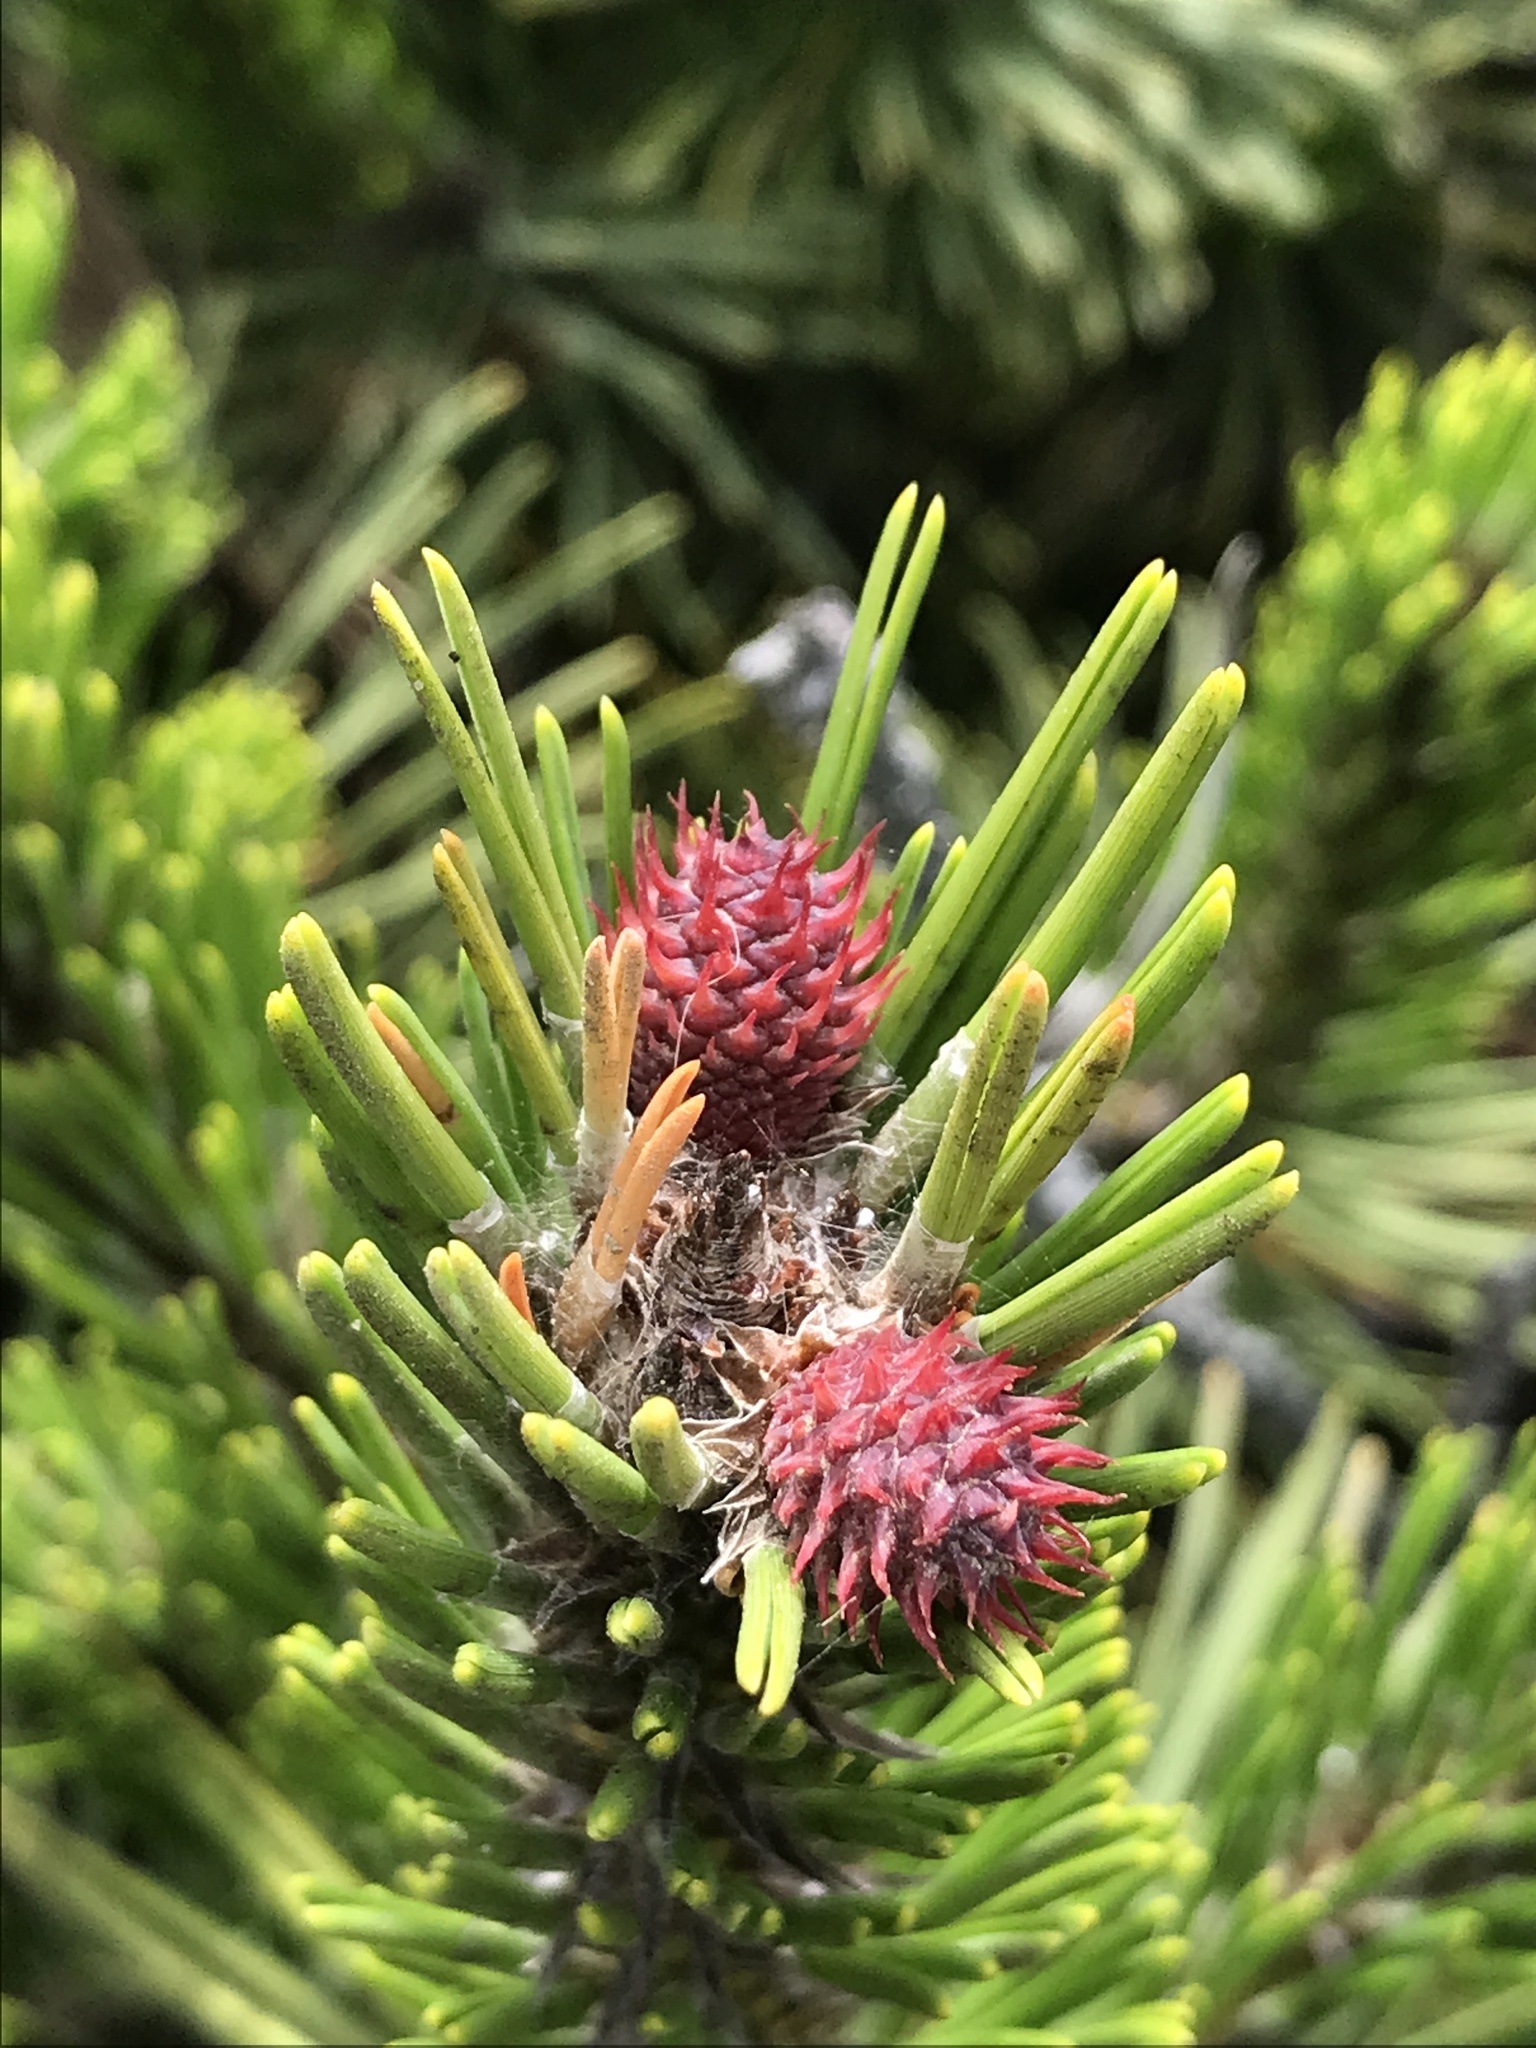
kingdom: Plantae
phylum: Tracheophyta
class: Pinopsida
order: Pinales
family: Pinaceae
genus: Pinus
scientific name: Pinus contorta
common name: Lodgepole pine
